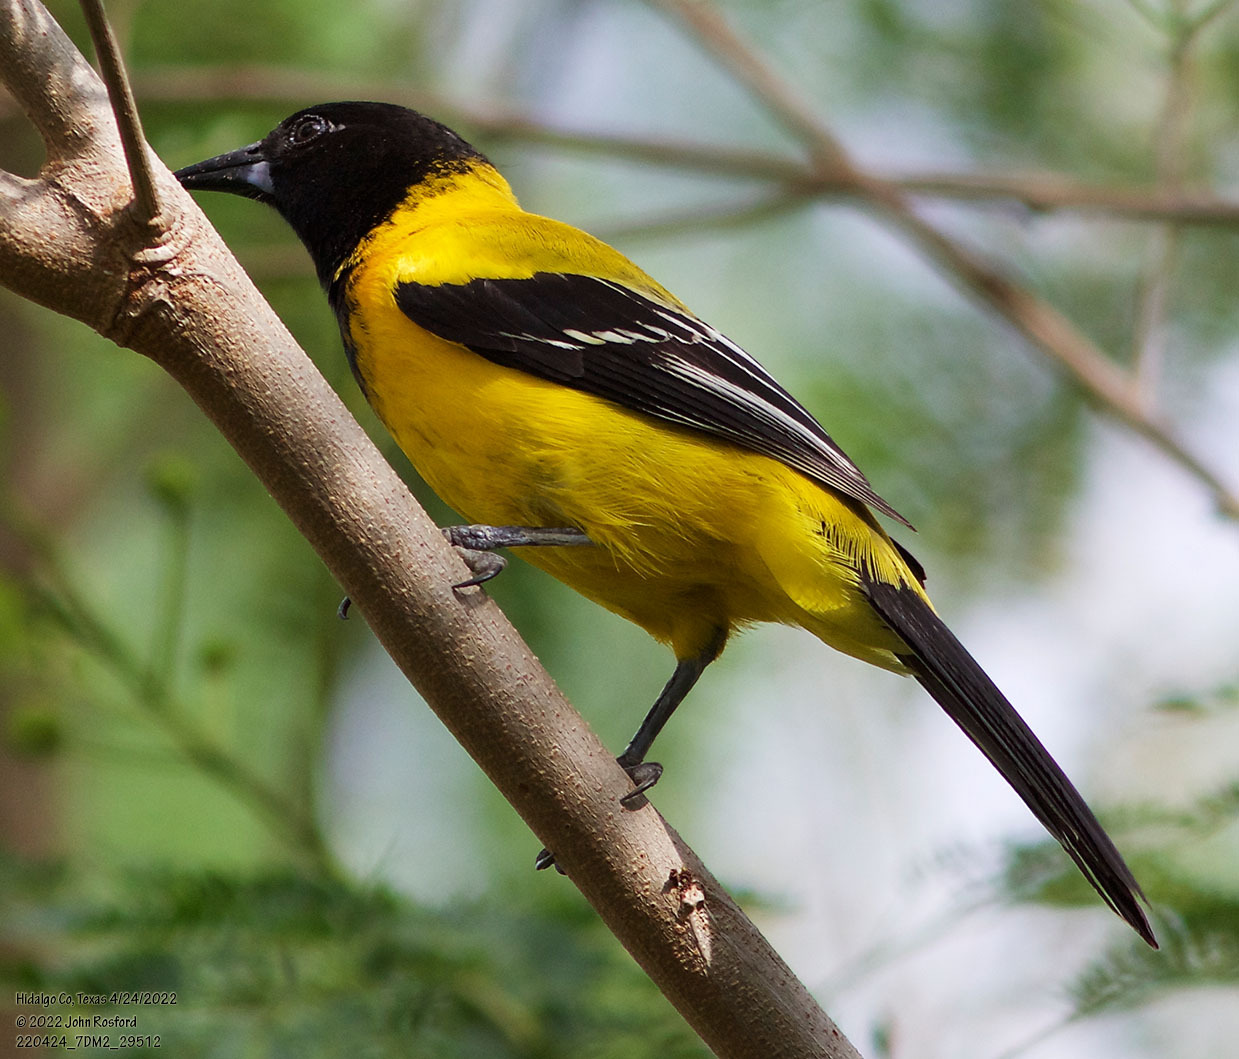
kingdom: Animalia
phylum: Chordata
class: Aves
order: Passeriformes
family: Icteridae
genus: Icterus
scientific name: Icterus graduacauda
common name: Audubon's oriole
